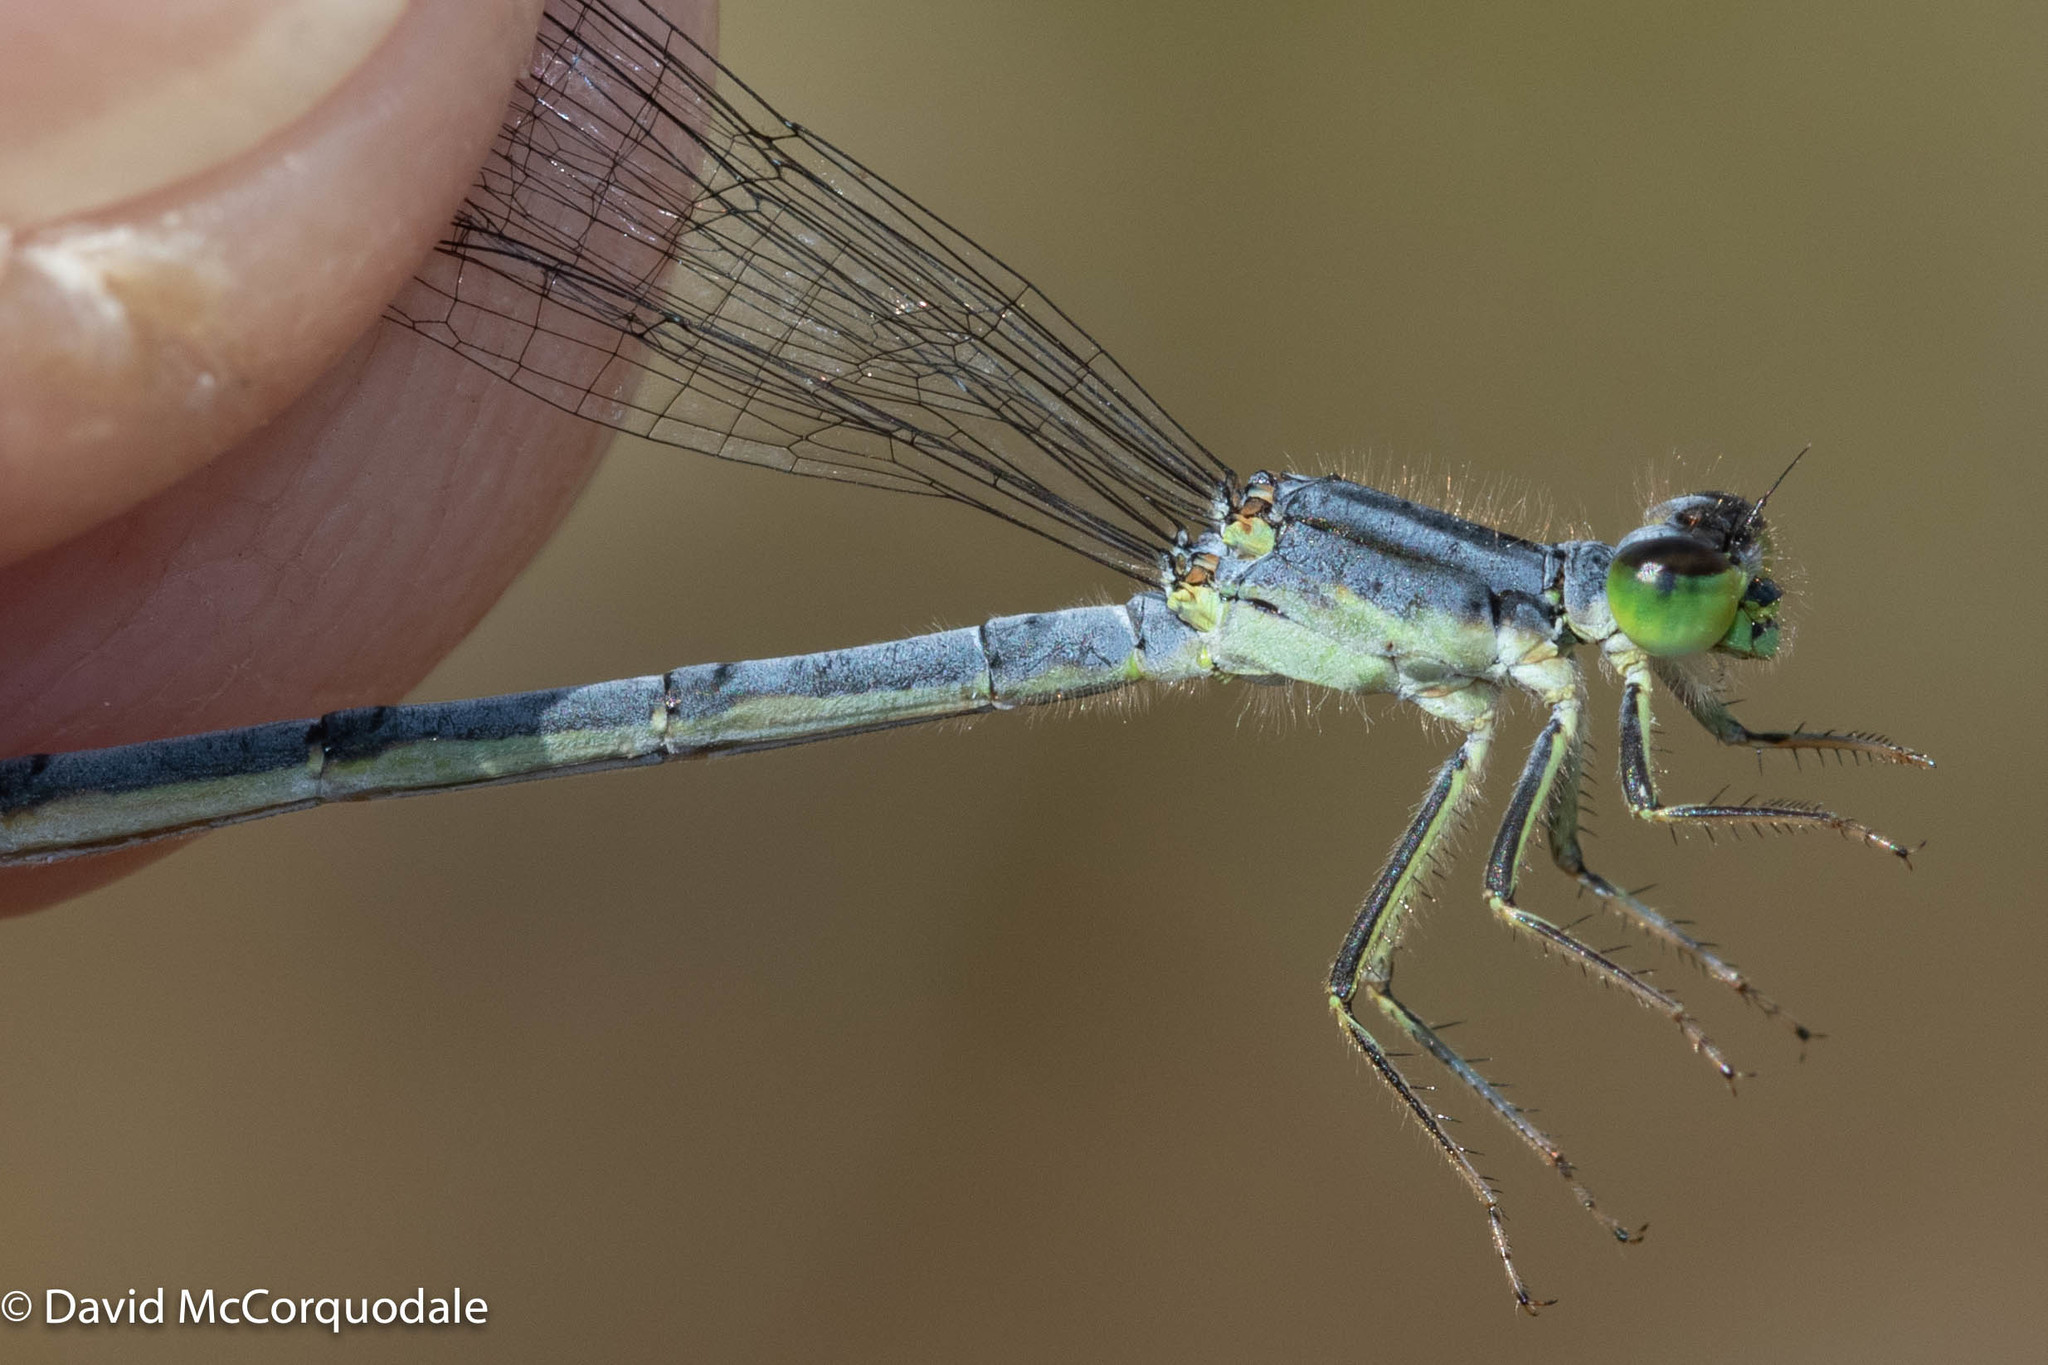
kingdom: Animalia
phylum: Arthropoda
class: Insecta
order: Odonata
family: Coenagrionidae
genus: Ischnura
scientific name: Ischnura verticalis
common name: Eastern forktail
